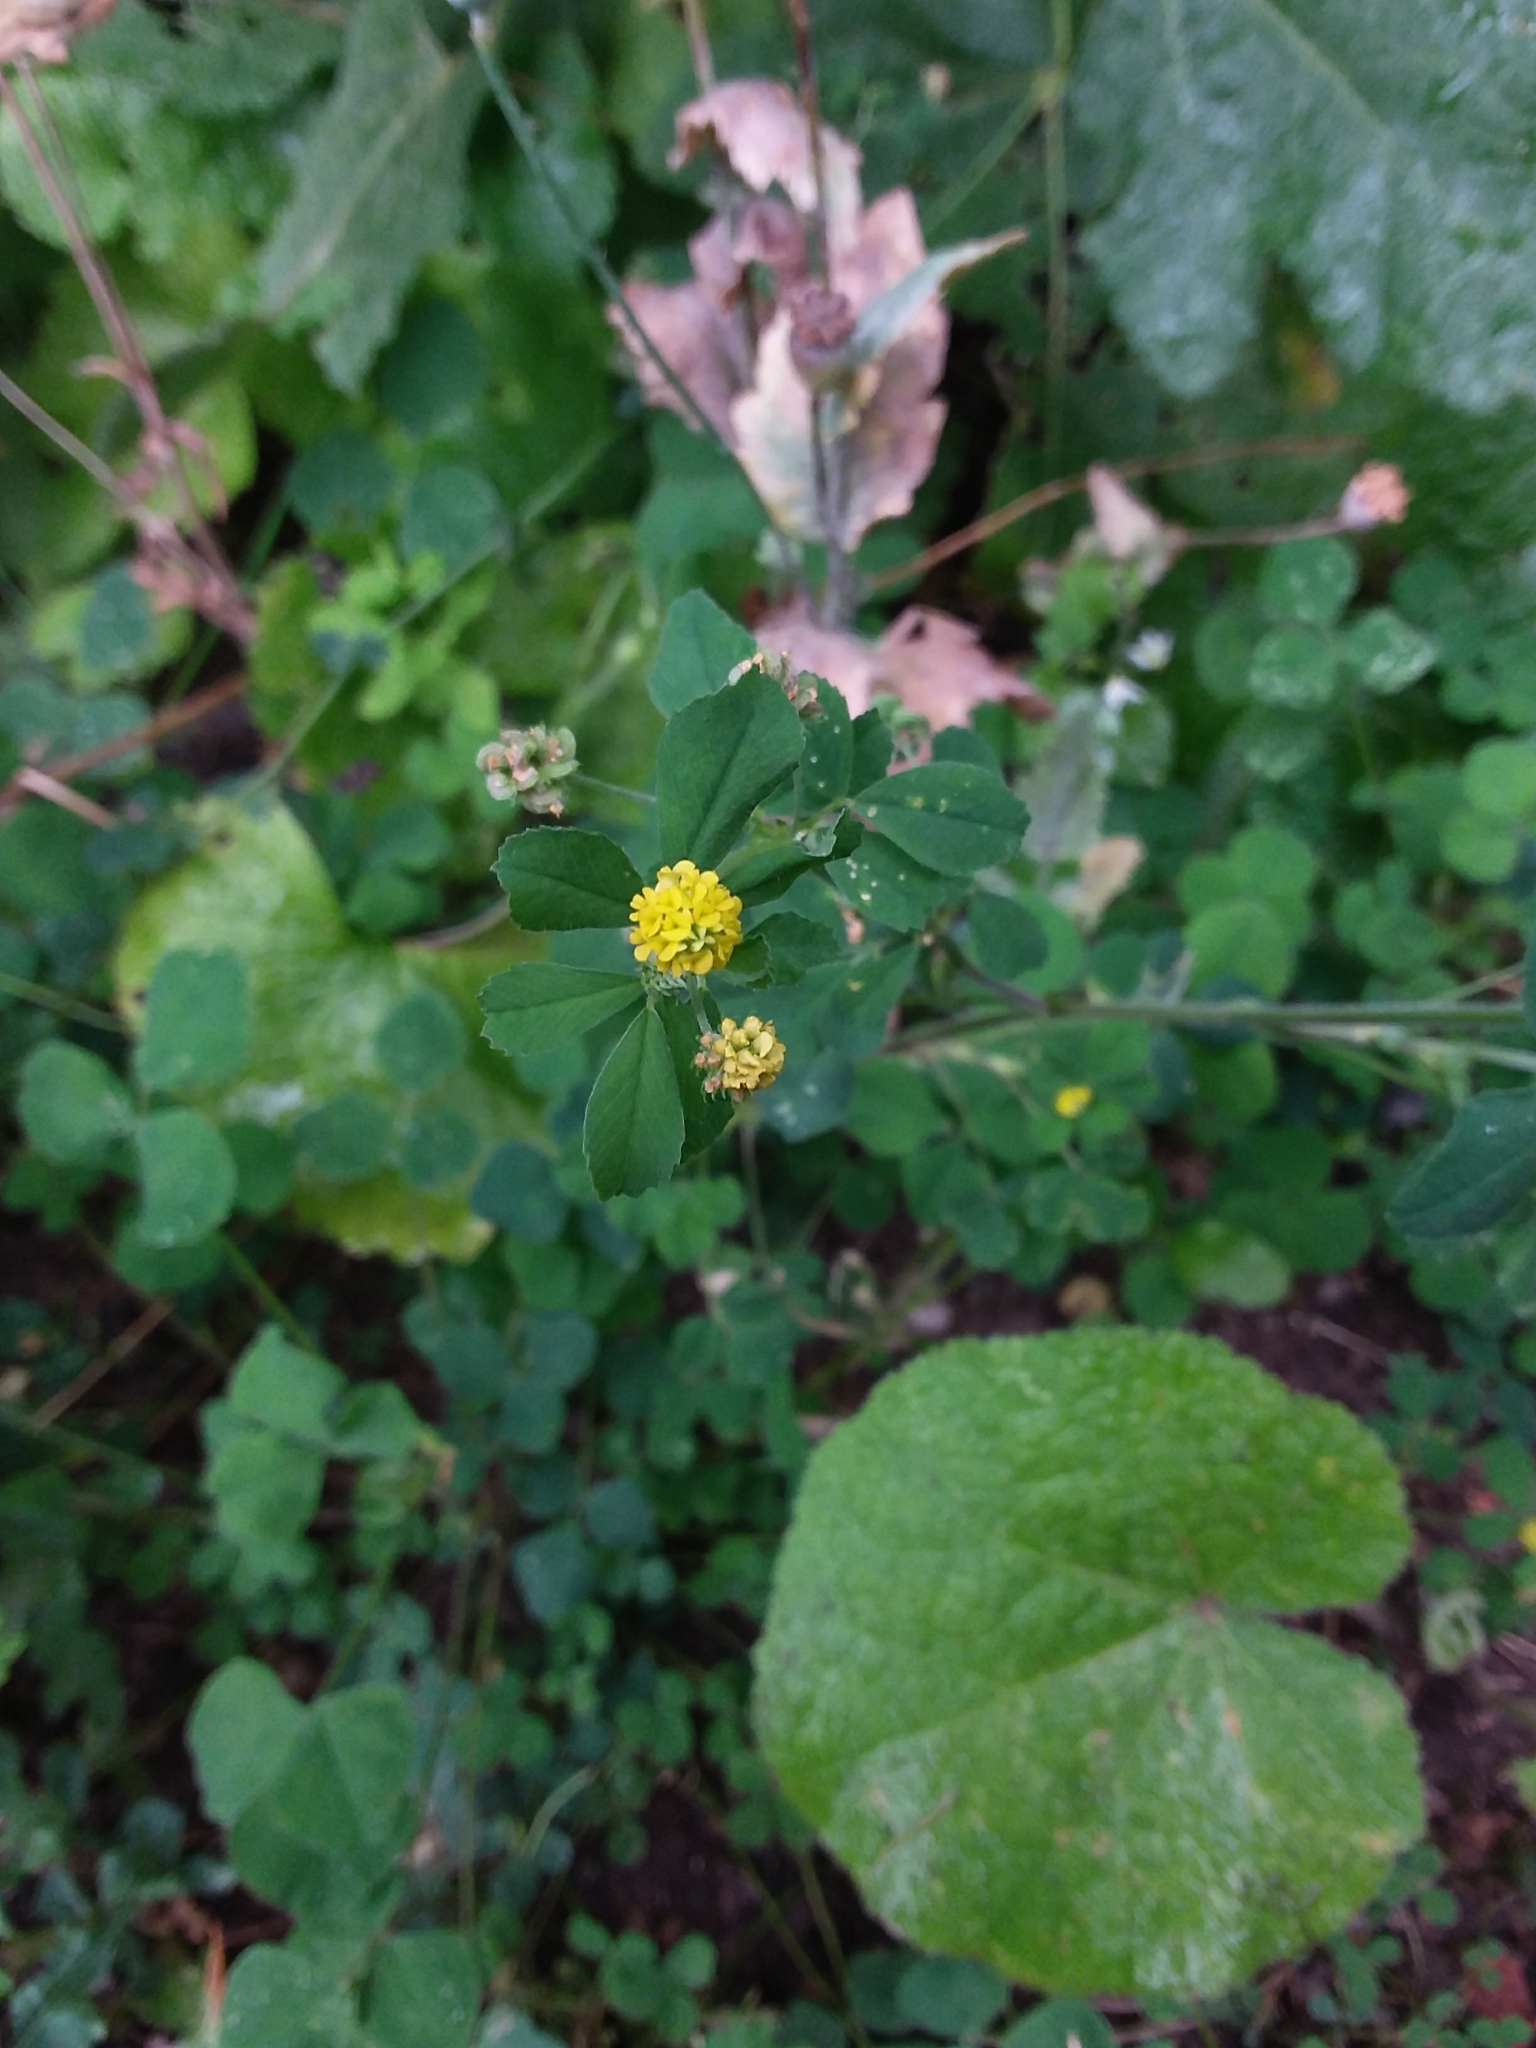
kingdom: Plantae
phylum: Tracheophyta
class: Magnoliopsida
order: Fabales
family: Fabaceae
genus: Medicago
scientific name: Medicago lupulina
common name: Black medick
